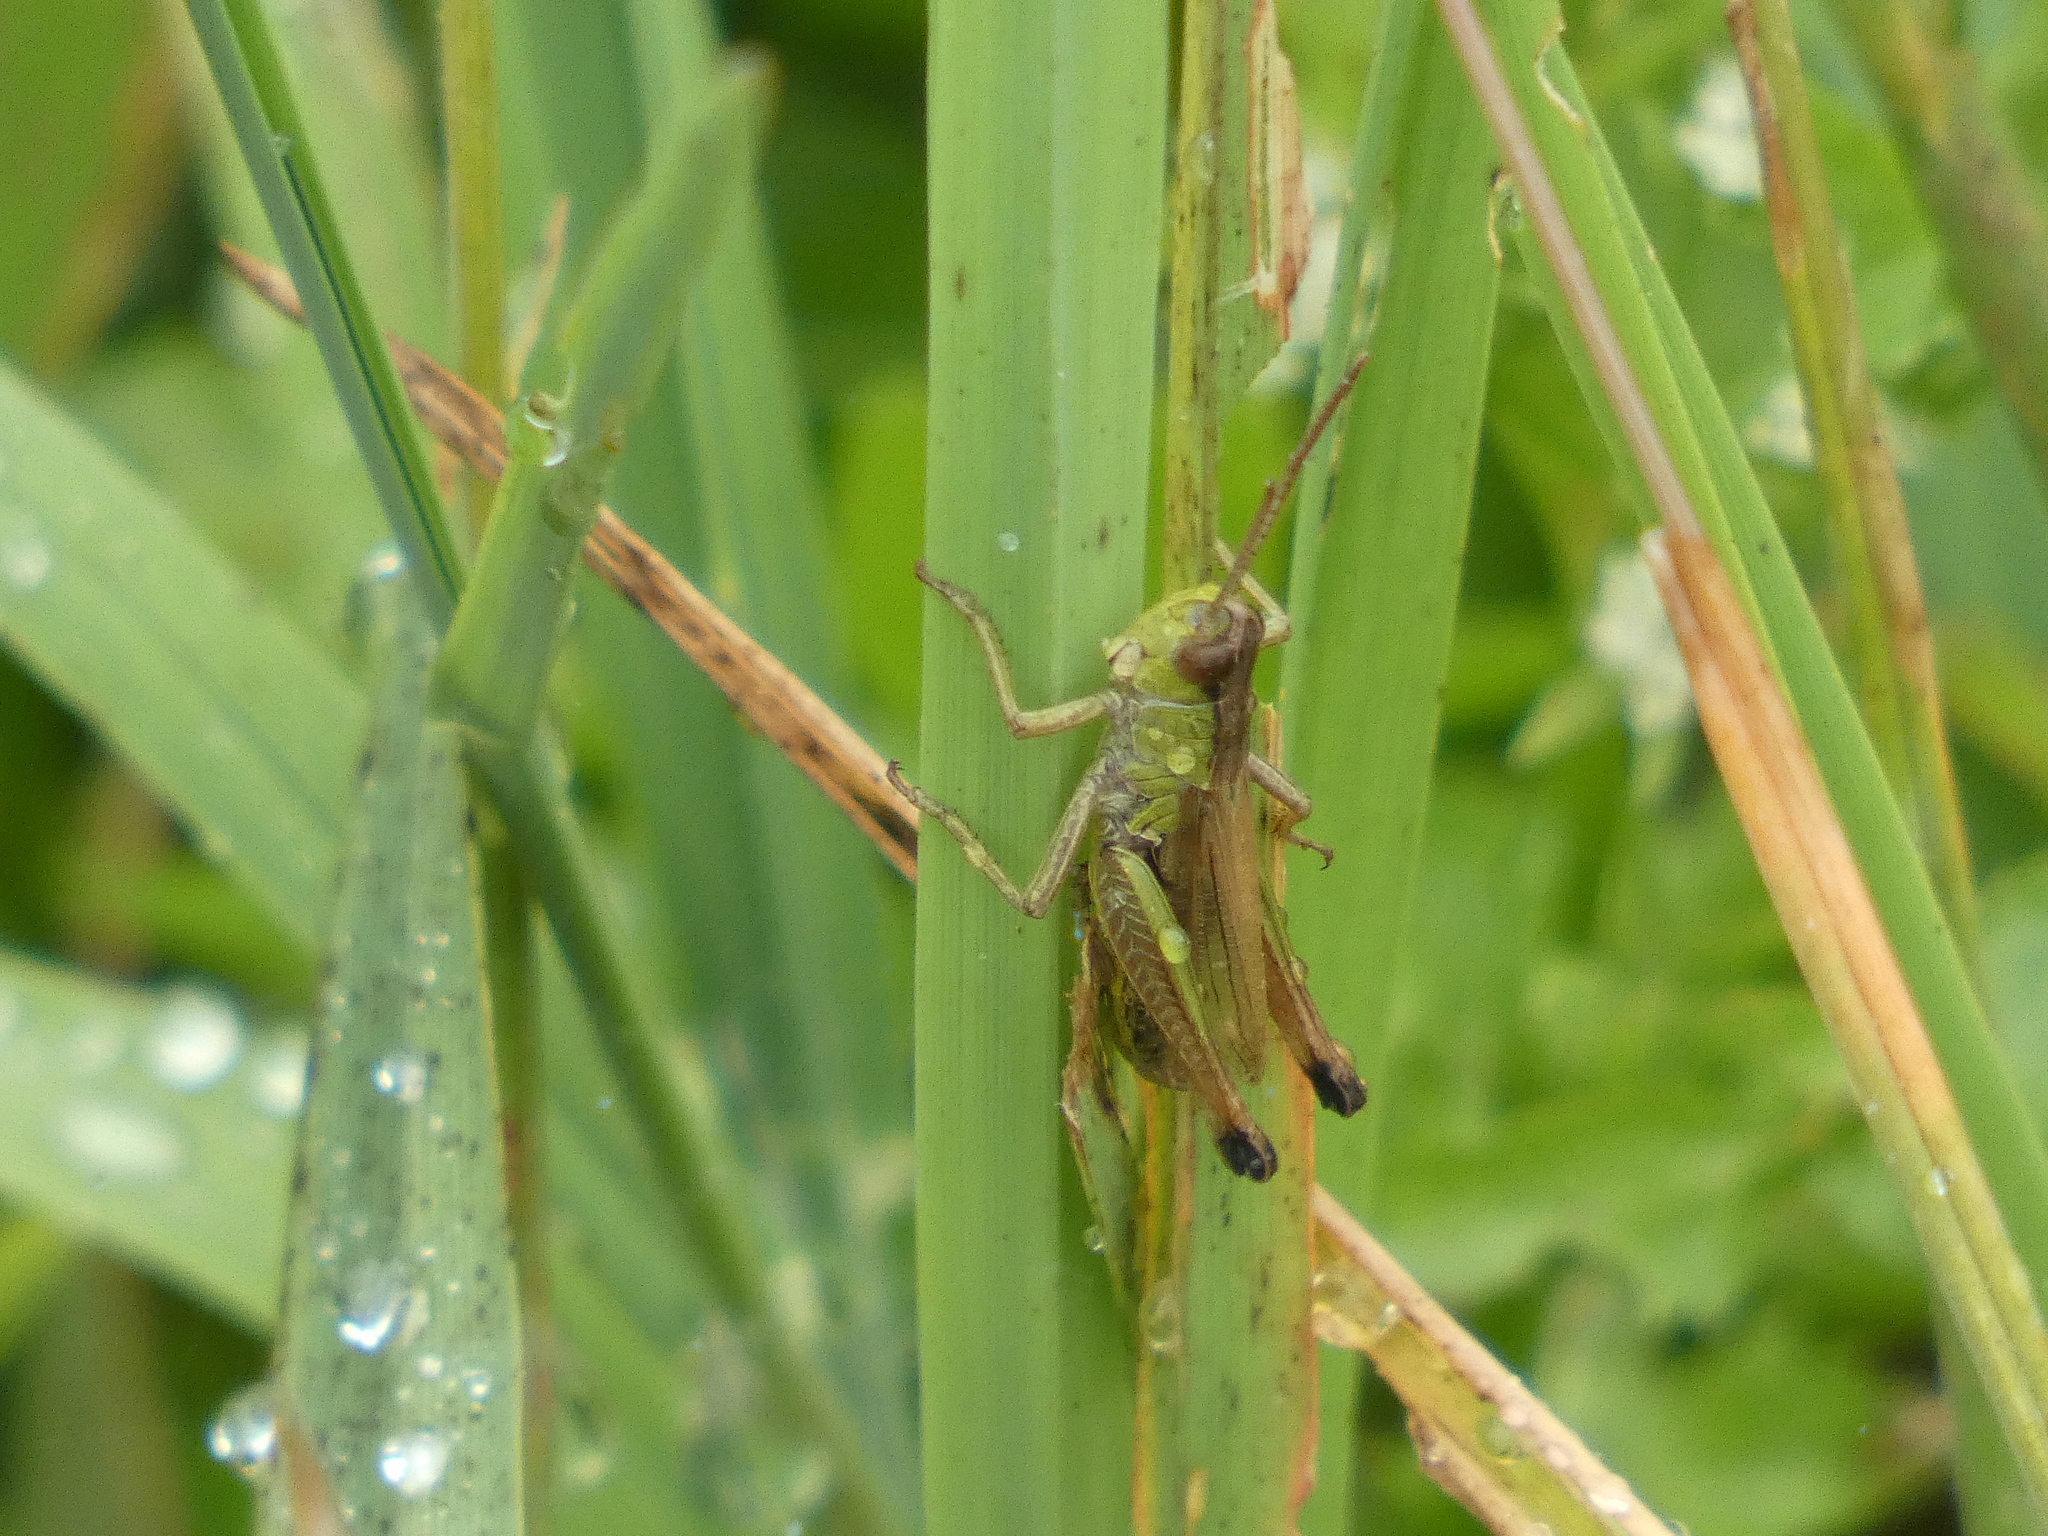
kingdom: Animalia
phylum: Arthropoda
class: Insecta
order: Orthoptera
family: Acrididae
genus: Pseudochorthippus
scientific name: Pseudochorthippus parallelus
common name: Meadow grasshopper
